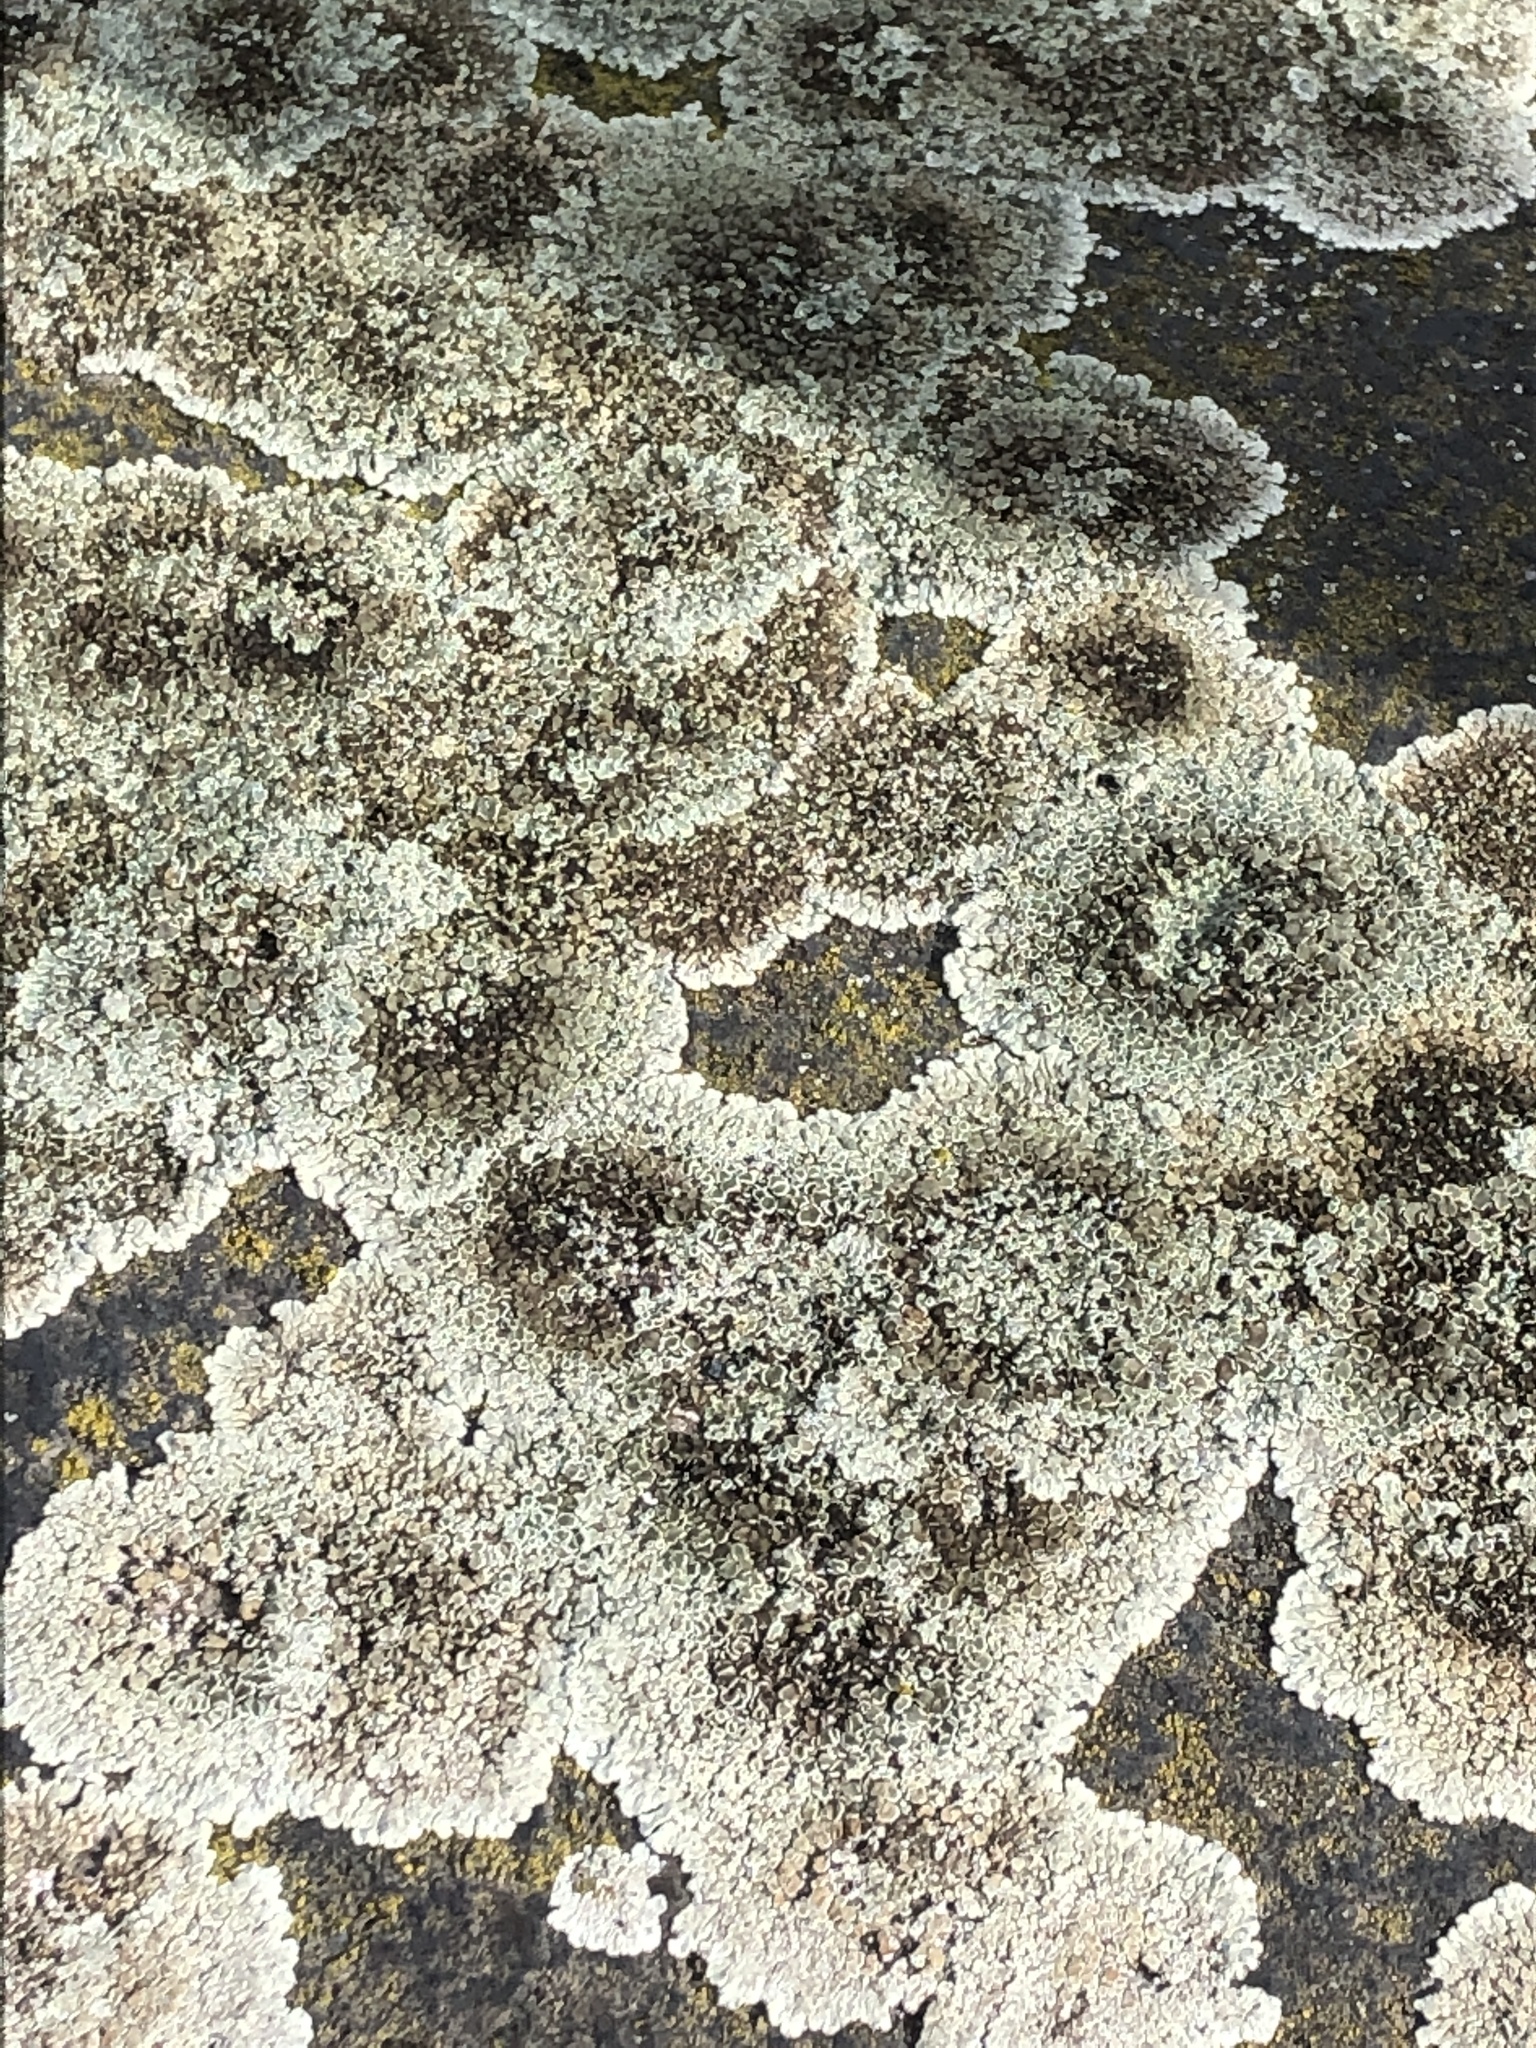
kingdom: Fungi
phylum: Ascomycota
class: Lecanoromycetes
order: Lecanorales
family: Lecanoraceae
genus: Protoparmeliopsis
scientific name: Protoparmeliopsis muralis
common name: Stonewall rim lichen
